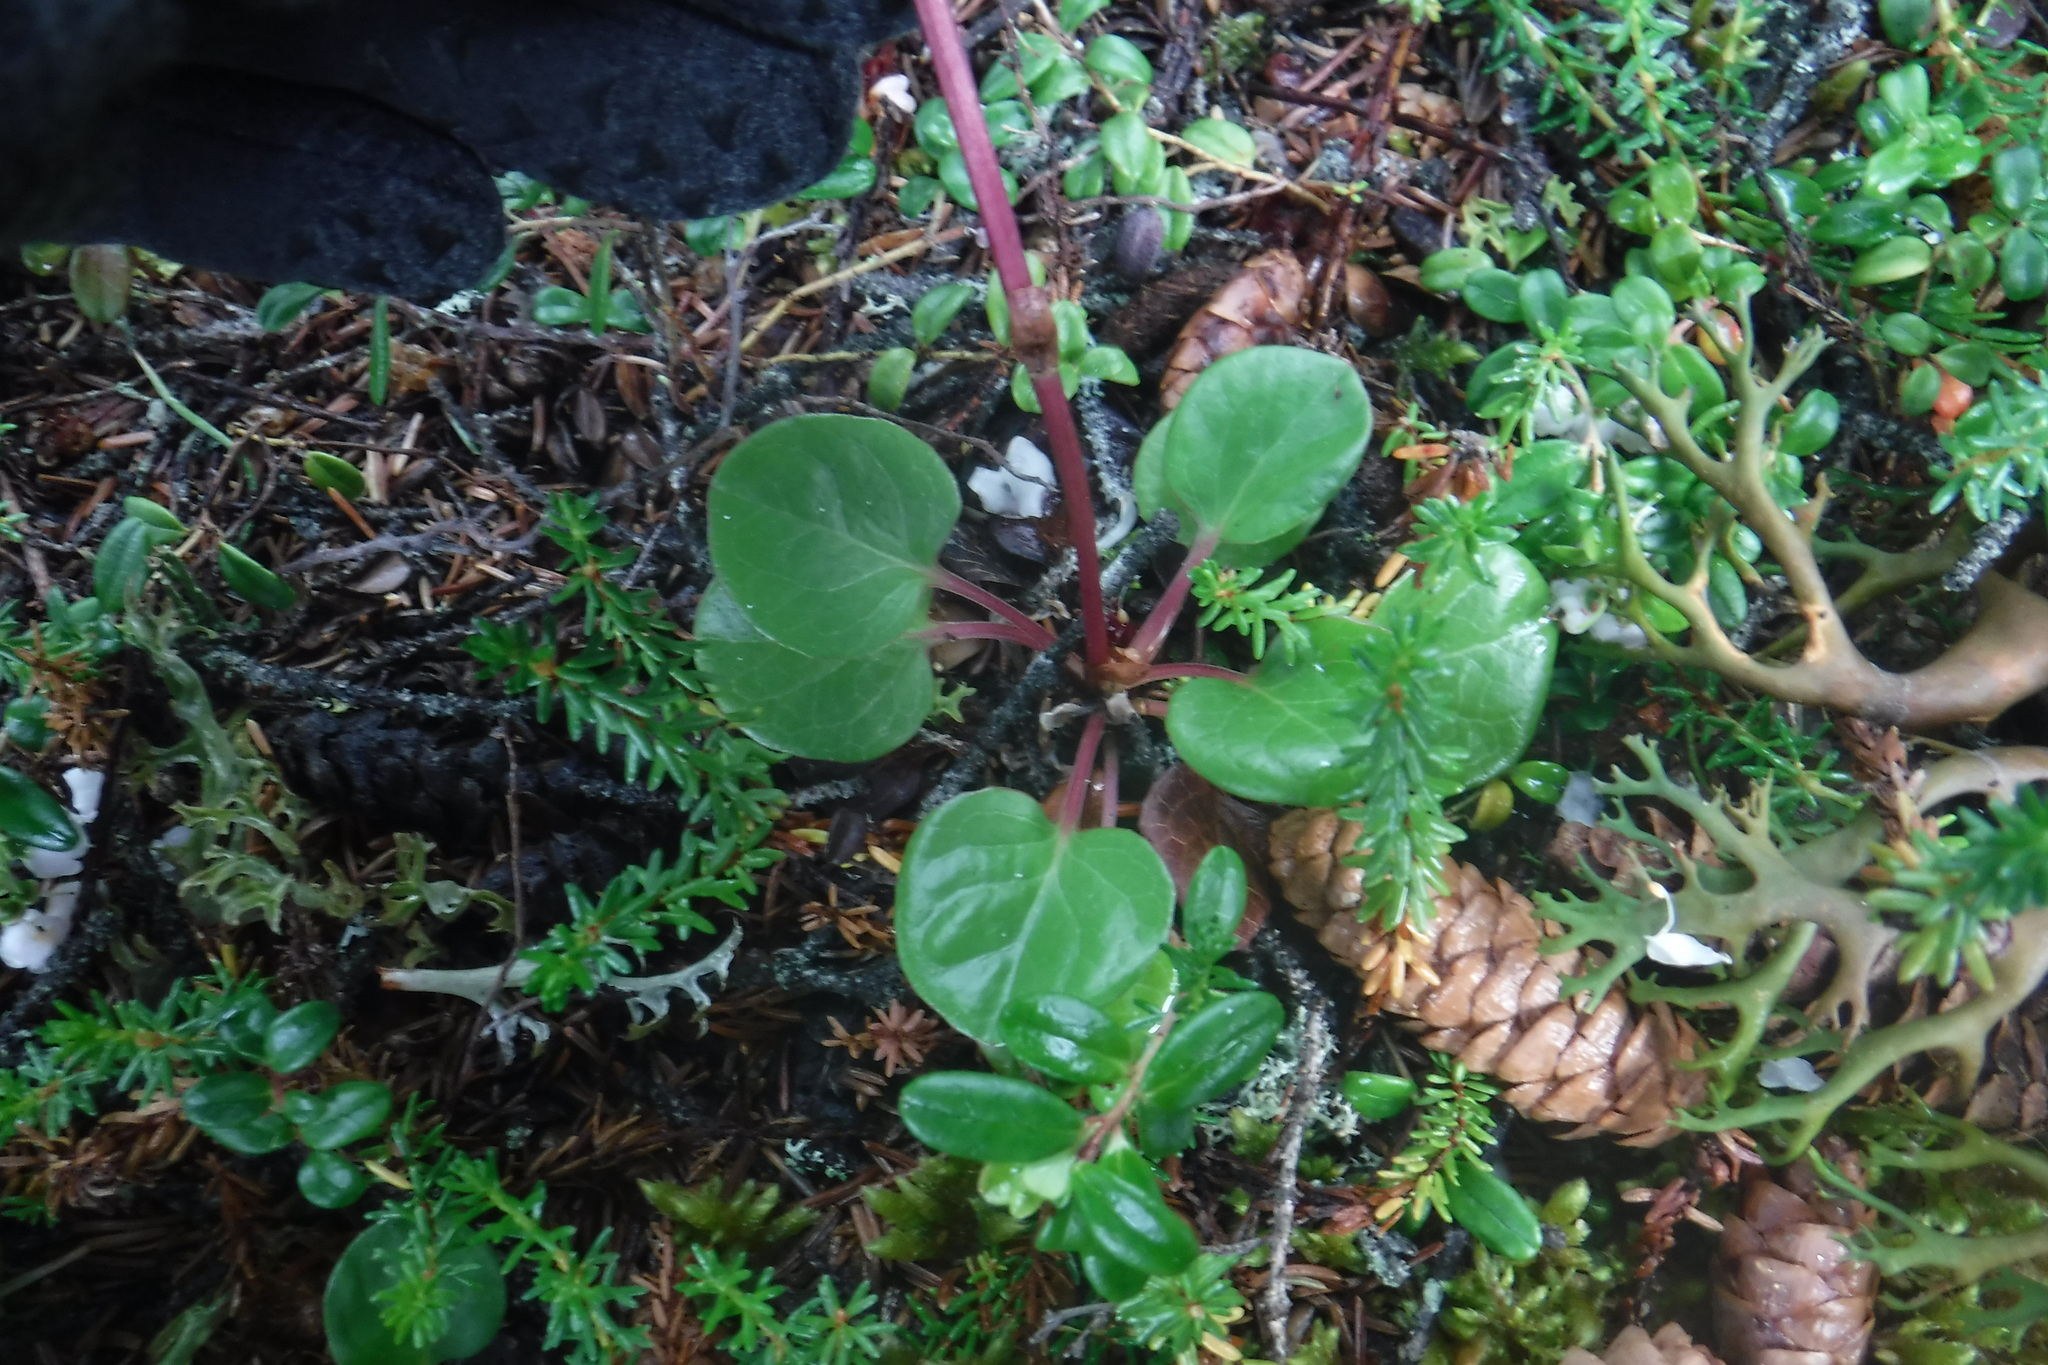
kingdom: Plantae
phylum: Tracheophyta
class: Magnoliopsida
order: Ericales
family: Ericaceae
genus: Pyrola
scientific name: Pyrola grandiflora
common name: Arctic pyrola
